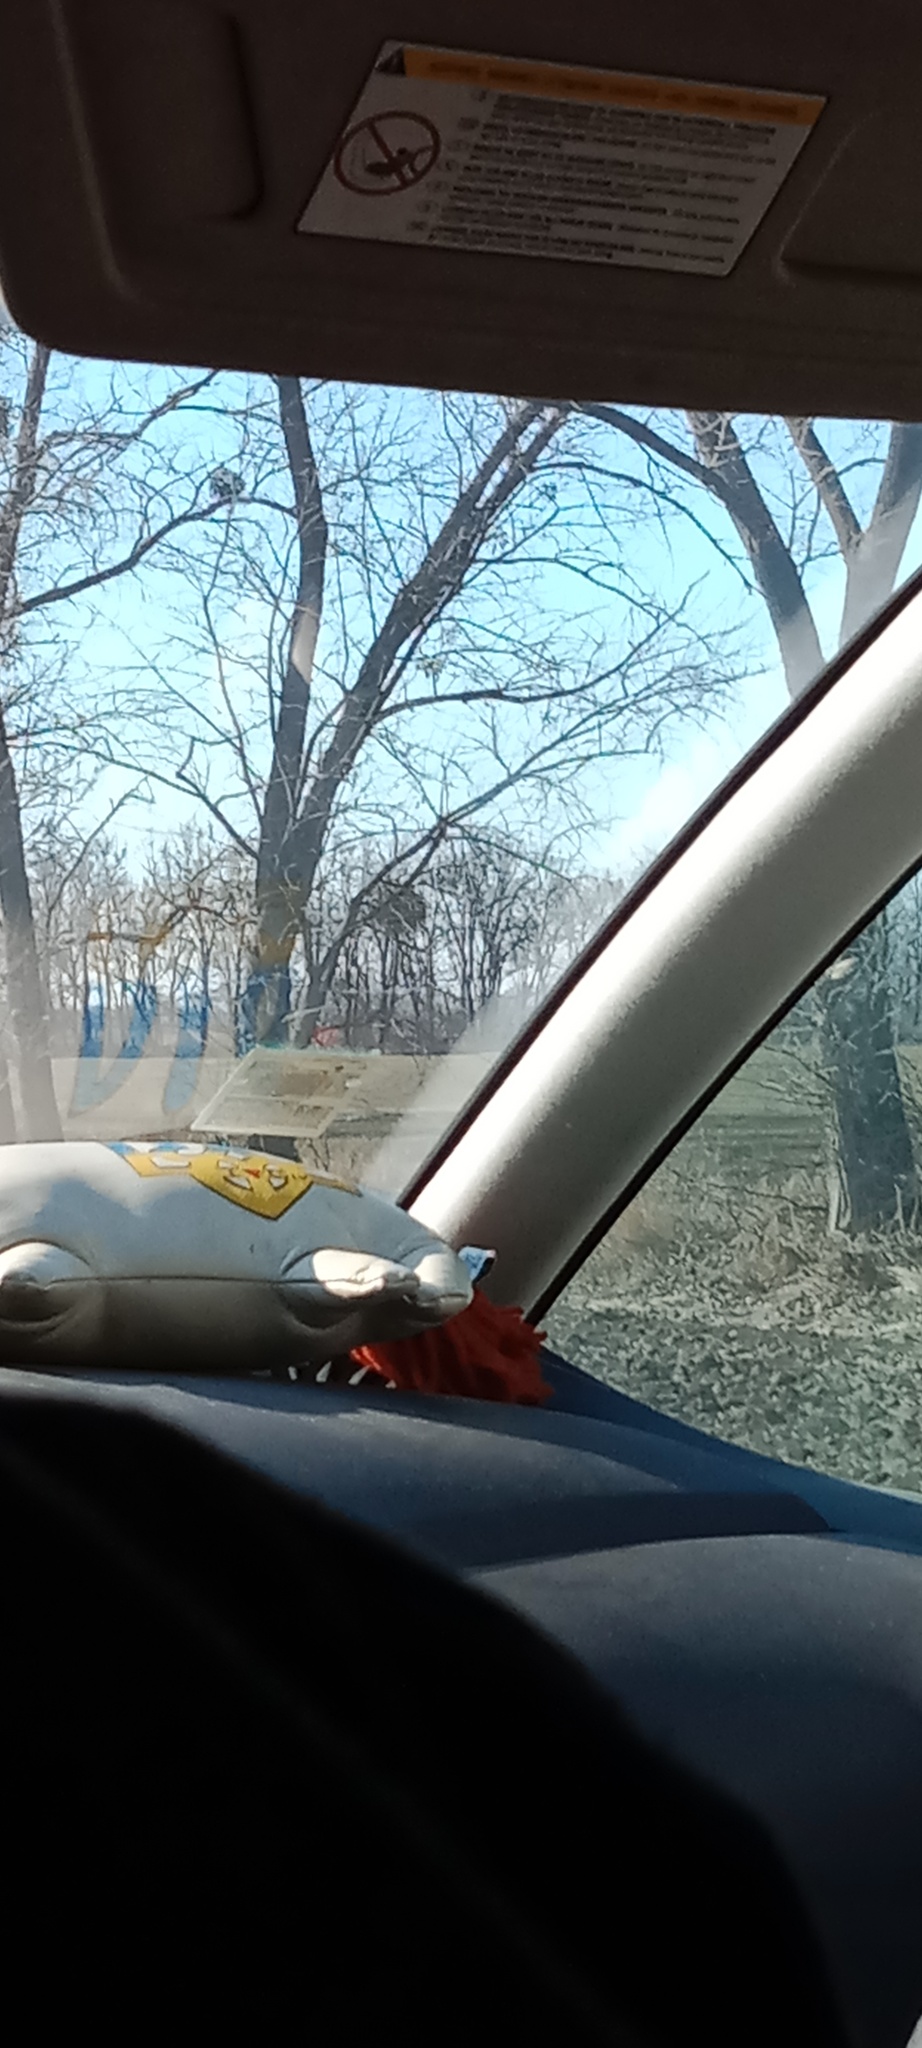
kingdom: Plantae
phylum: Tracheophyta
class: Magnoliopsida
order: Santalales
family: Viscaceae
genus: Viscum
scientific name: Viscum album
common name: Mistletoe
